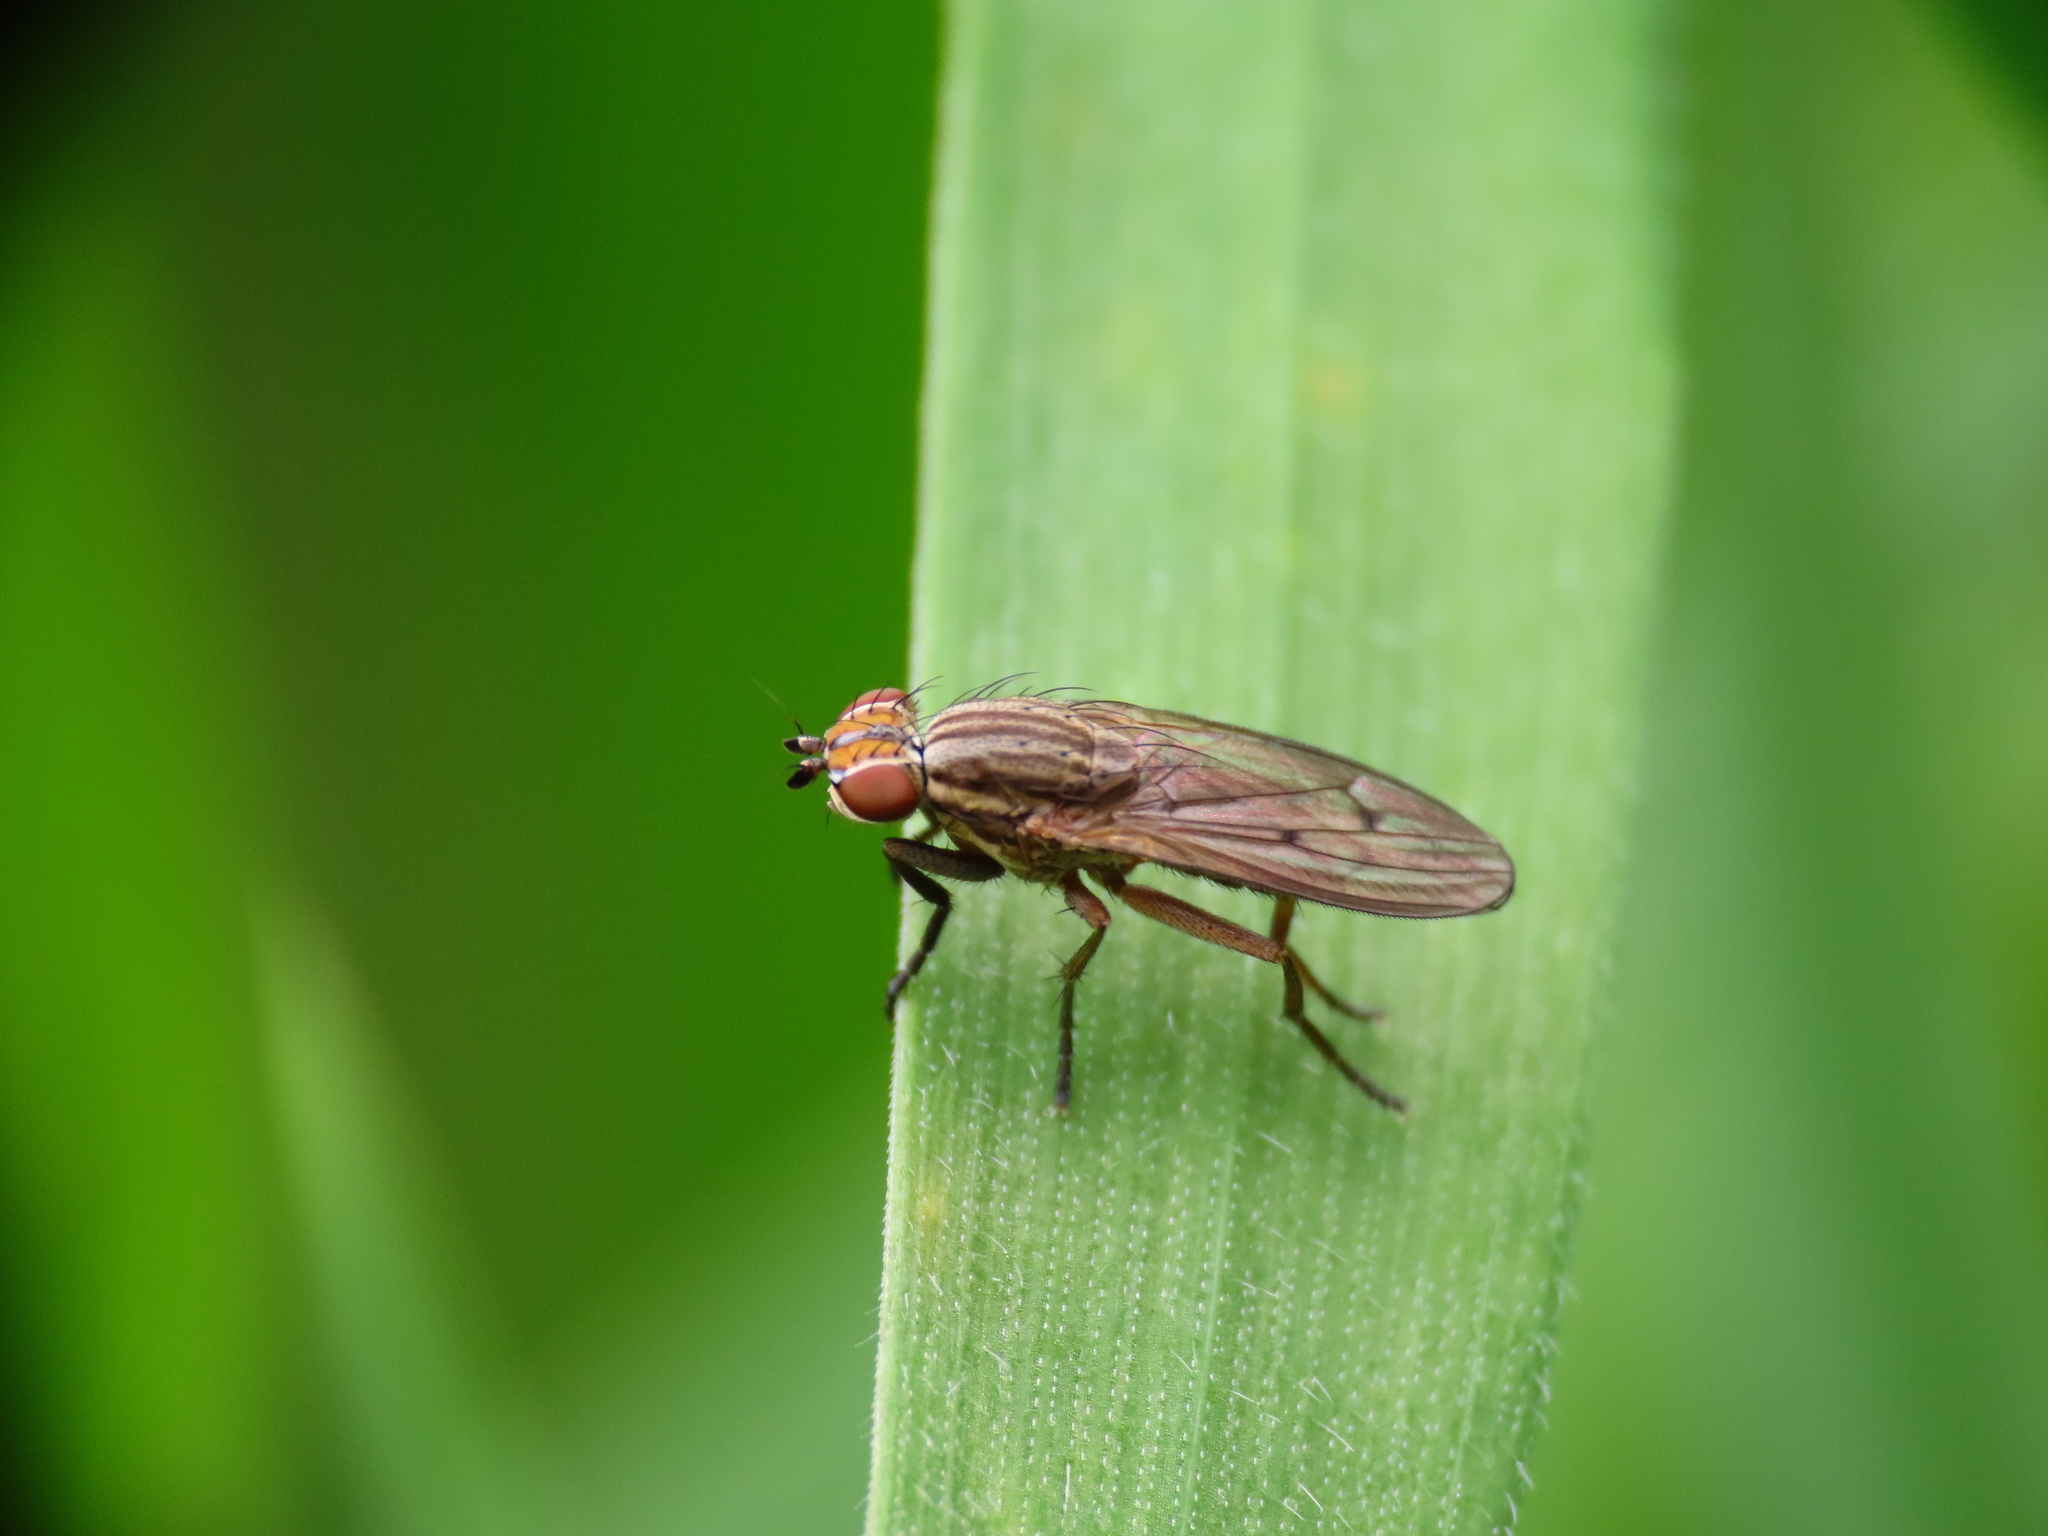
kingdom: Animalia
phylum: Arthropoda
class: Insecta
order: Diptera
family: Sciomyzidae
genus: Pherbellia
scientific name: Pherbellia cinerella
